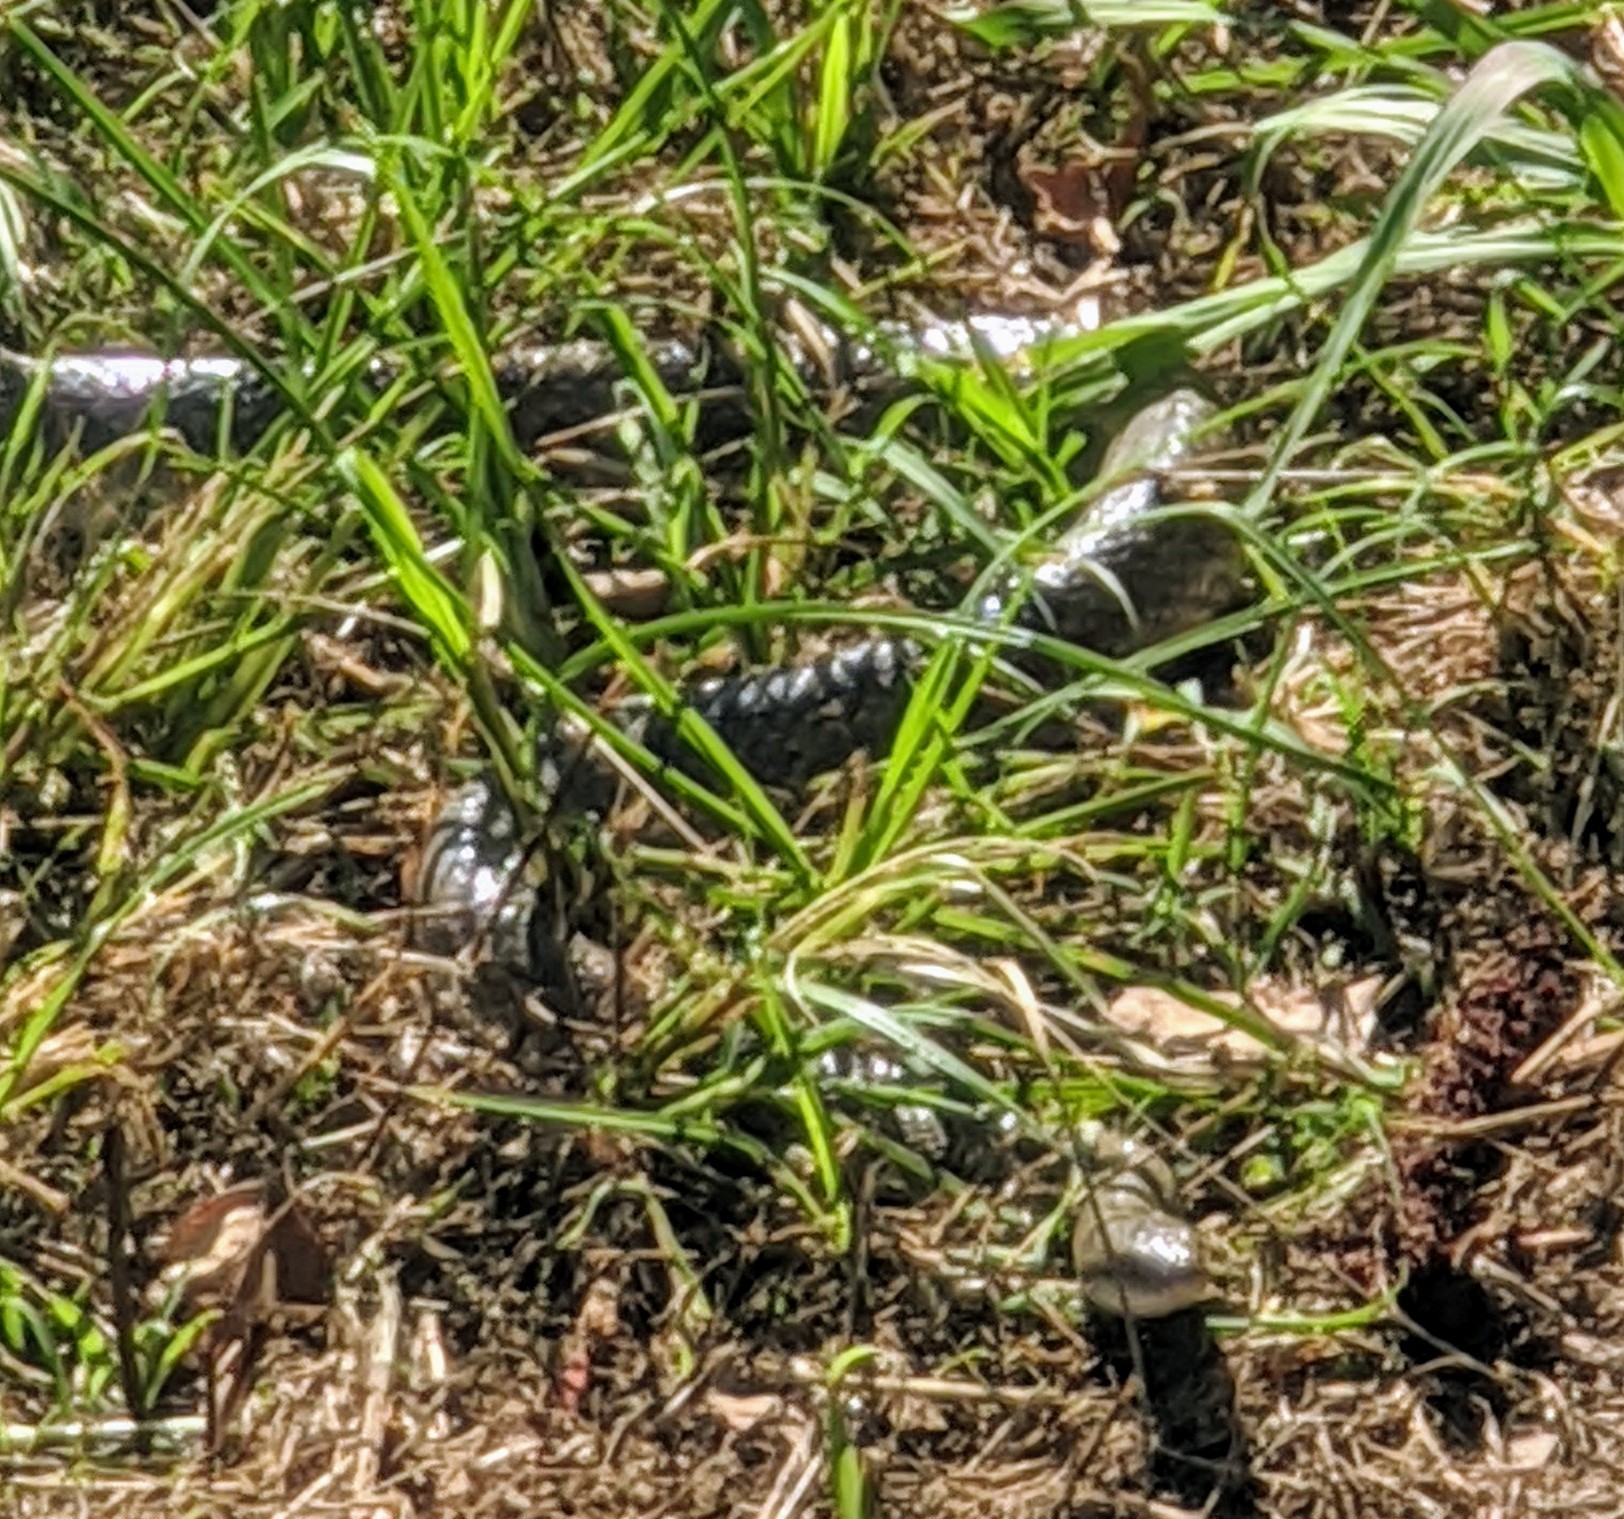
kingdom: Animalia
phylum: Chordata
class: Squamata
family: Colubridae
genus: Coluber
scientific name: Coluber constrictor
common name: Eastern racer
